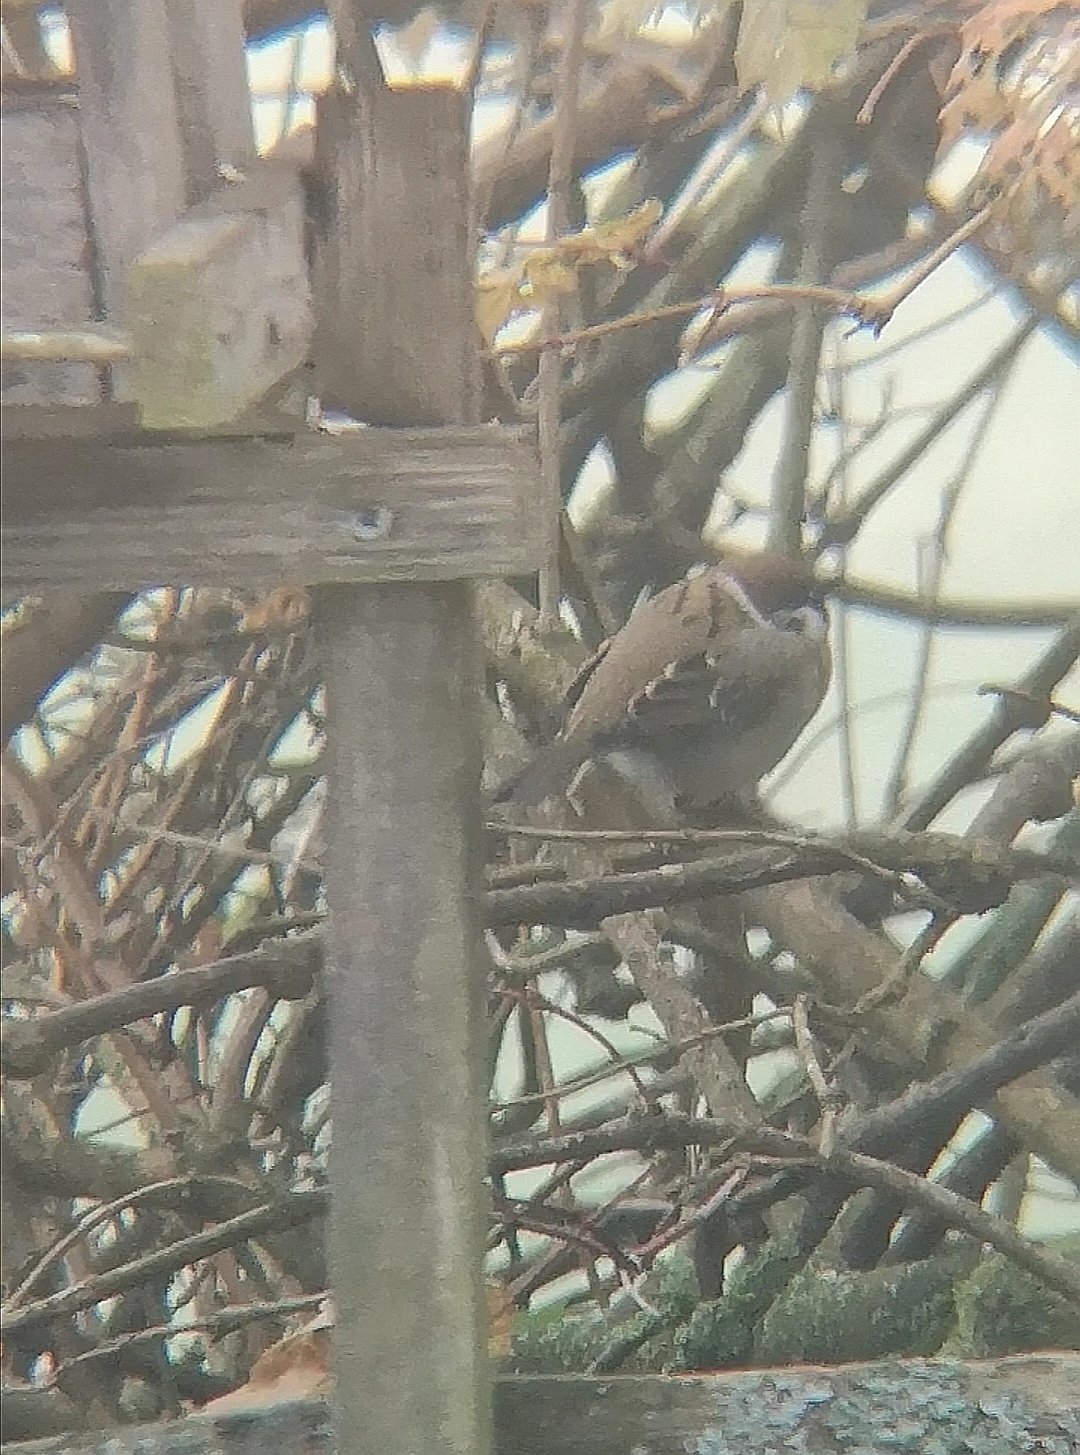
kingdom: Animalia
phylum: Chordata
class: Aves
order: Passeriformes
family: Passeridae
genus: Passer
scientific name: Passer montanus
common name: Eurasian tree sparrow
